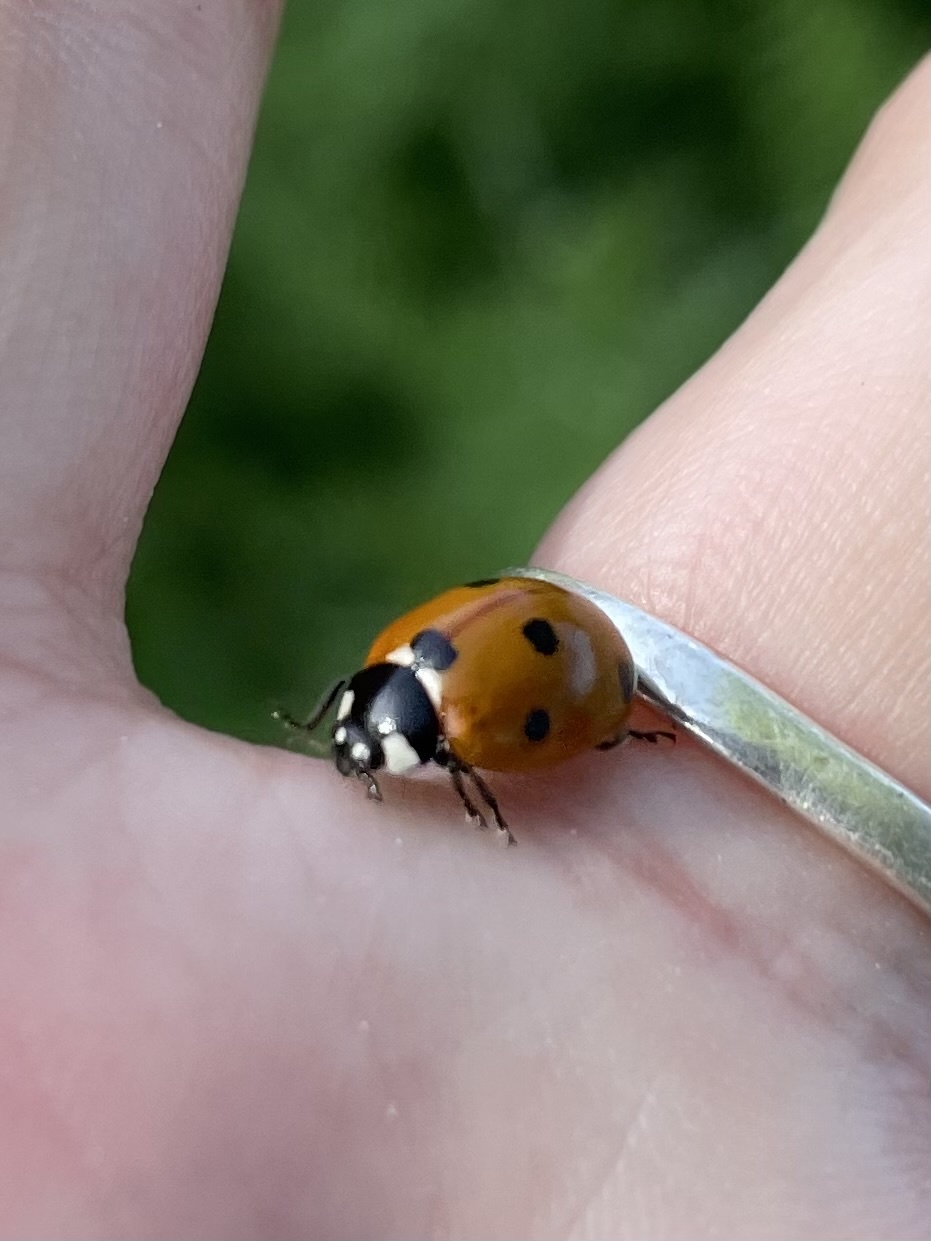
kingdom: Animalia
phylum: Arthropoda
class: Insecta
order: Coleoptera
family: Coccinellidae
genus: Coccinella
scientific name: Coccinella septempunctata
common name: Sevenspotted lady beetle
